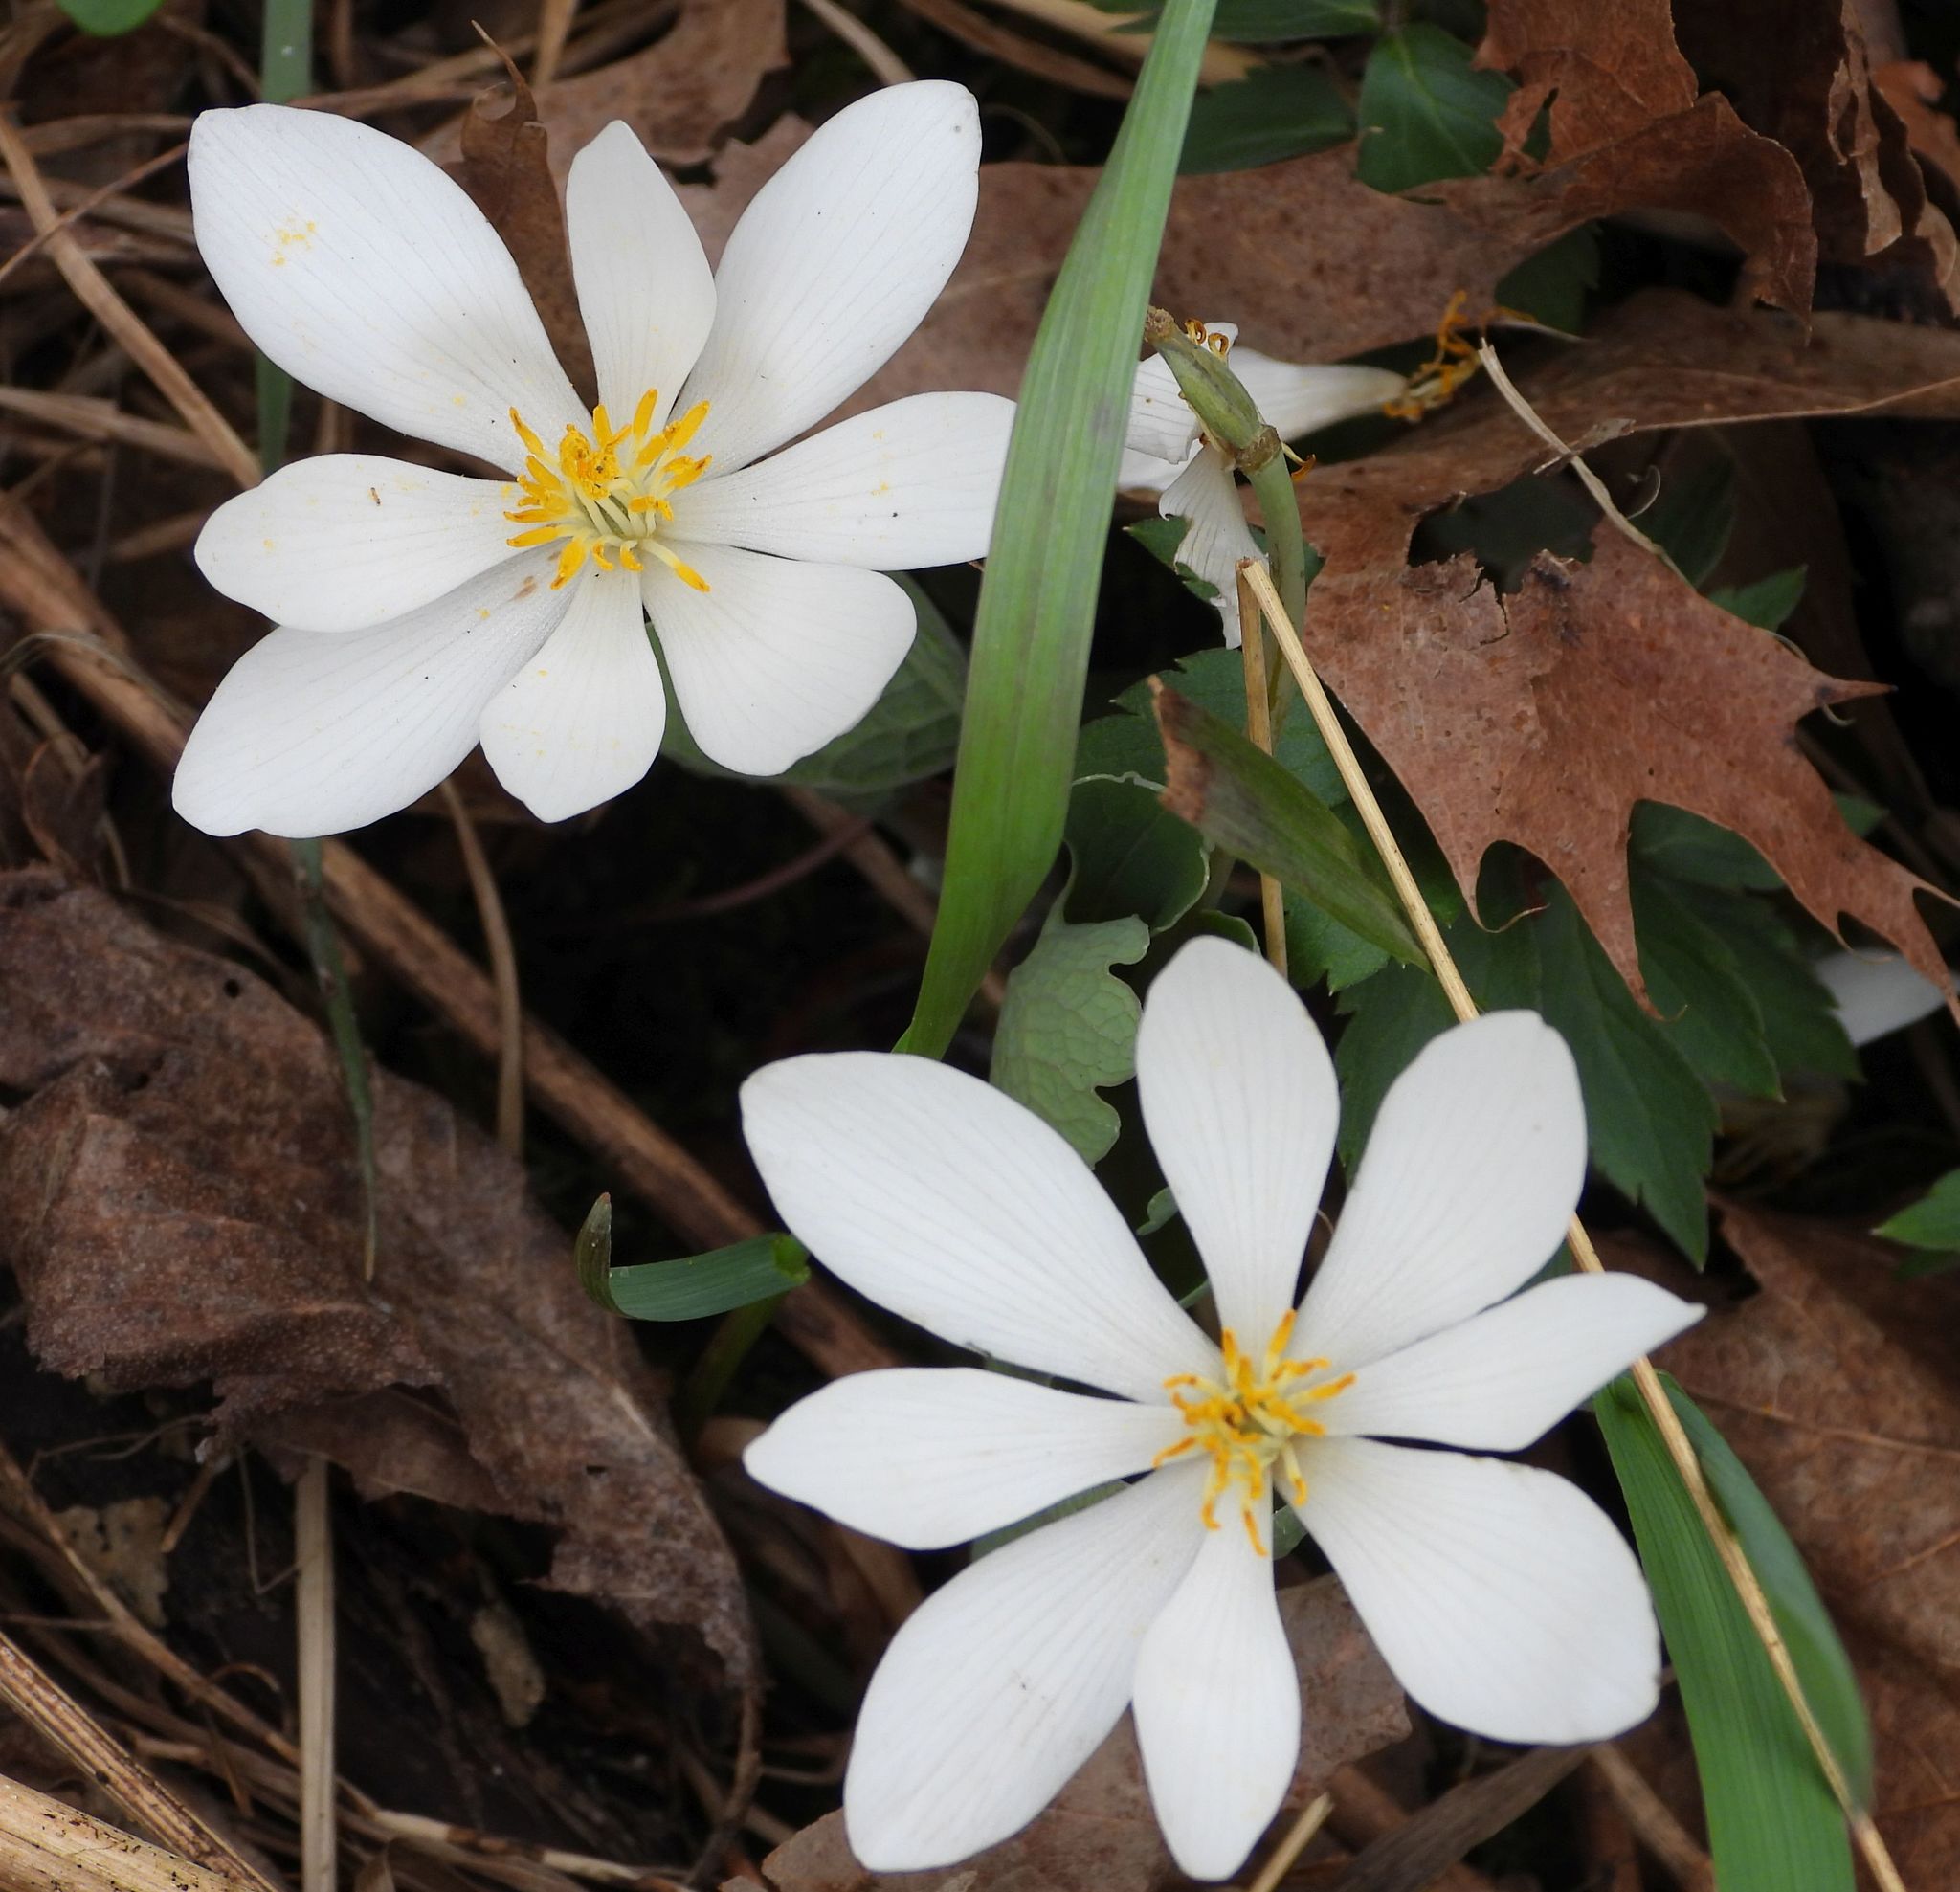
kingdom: Plantae
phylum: Tracheophyta
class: Magnoliopsida
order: Ranunculales
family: Papaveraceae
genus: Sanguinaria
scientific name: Sanguinaria canadensis
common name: Bloodroot
